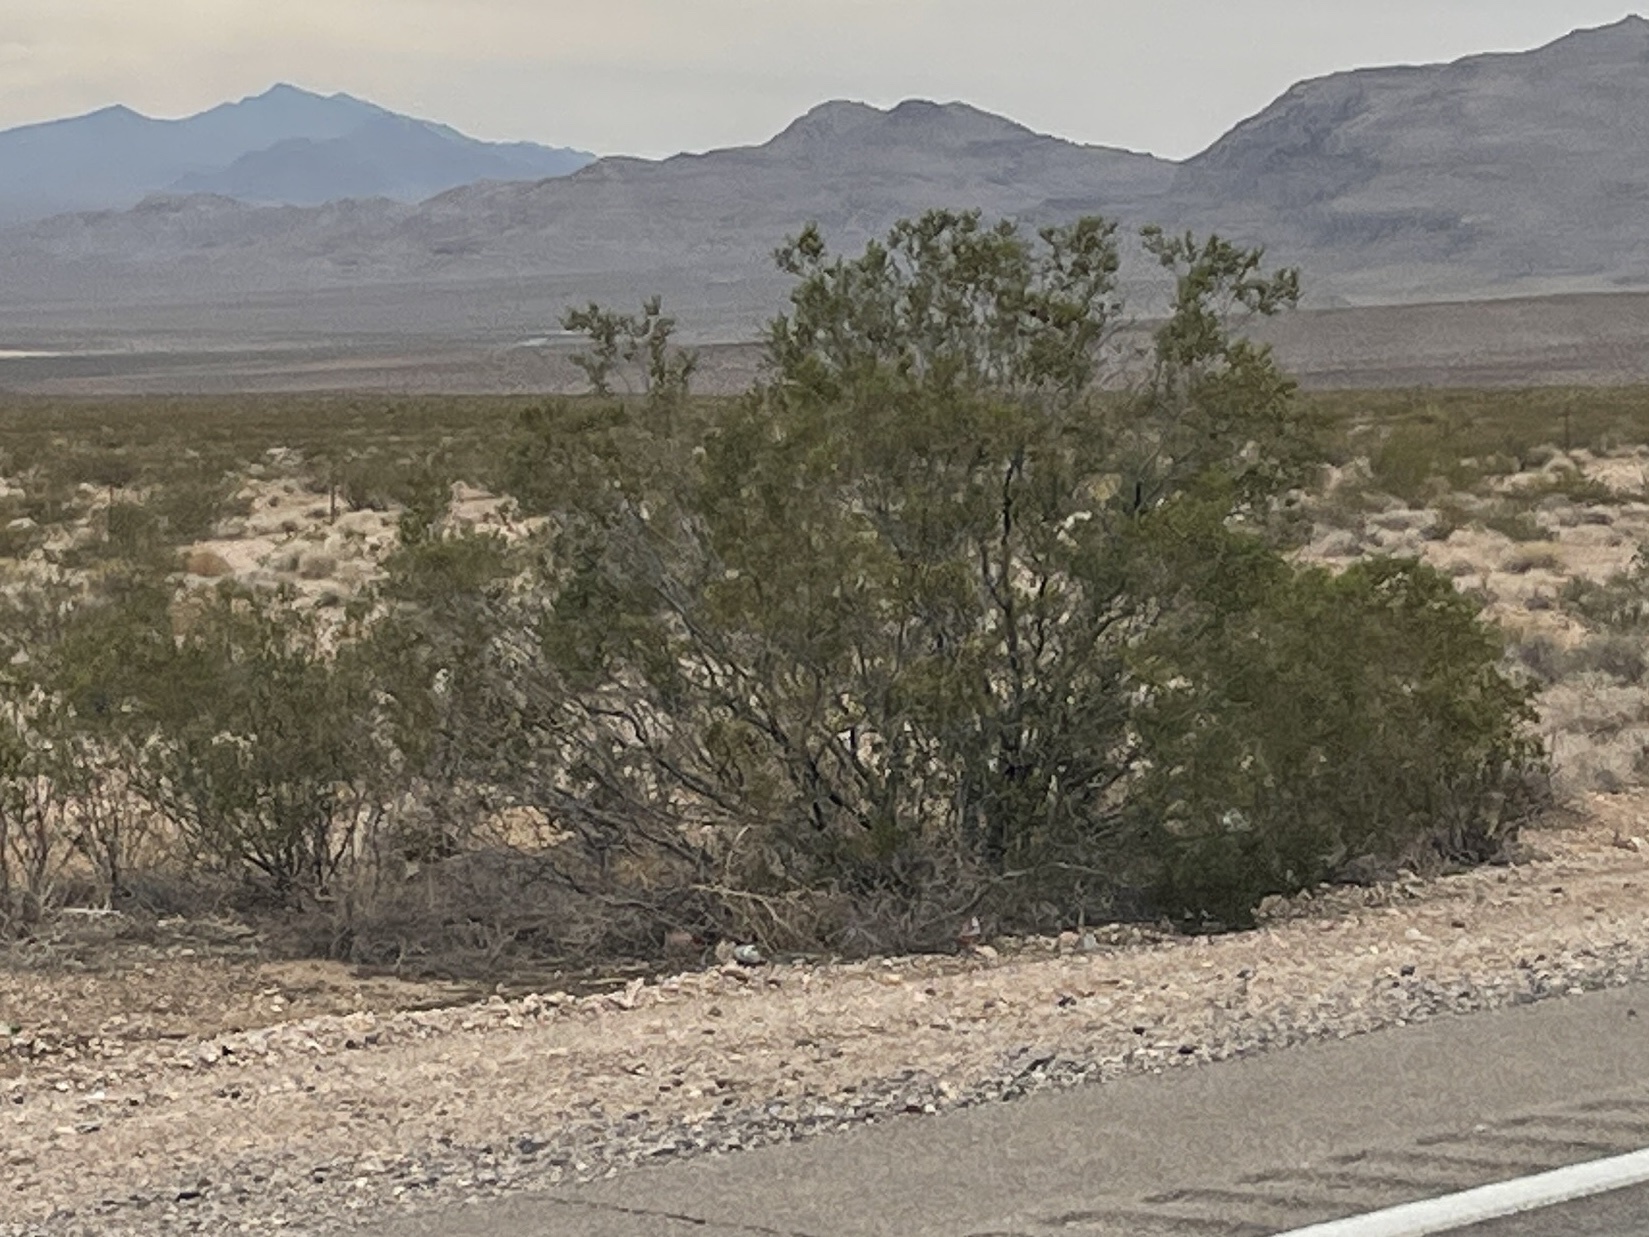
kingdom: Plantae
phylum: Tracheophyta
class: Magnoliopsida
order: Zygophyllales
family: Zygophyllaceae
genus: Larrea
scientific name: Larrea tridentata
